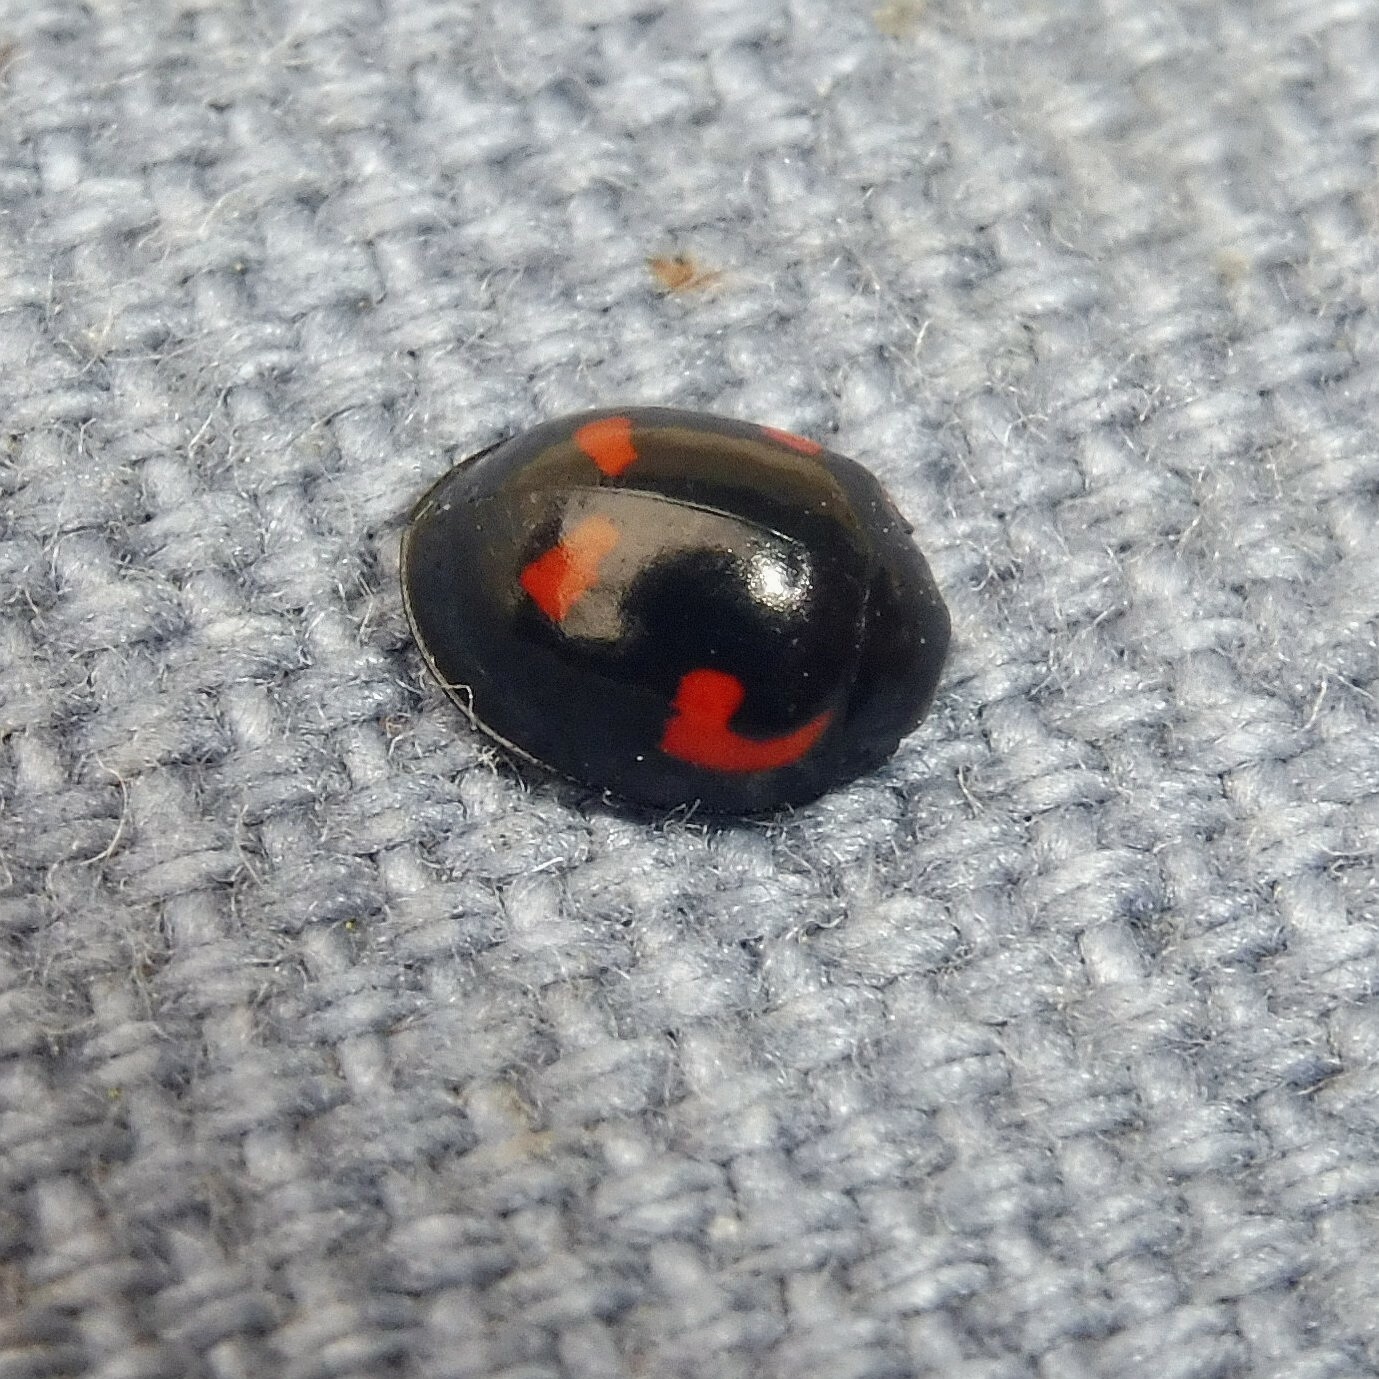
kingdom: Animalia
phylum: Arthropoda
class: Insecta
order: Coleoptera
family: Coccinellidae
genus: Brumus
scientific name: Brumus quadripustulatus
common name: Ladybird beetle
